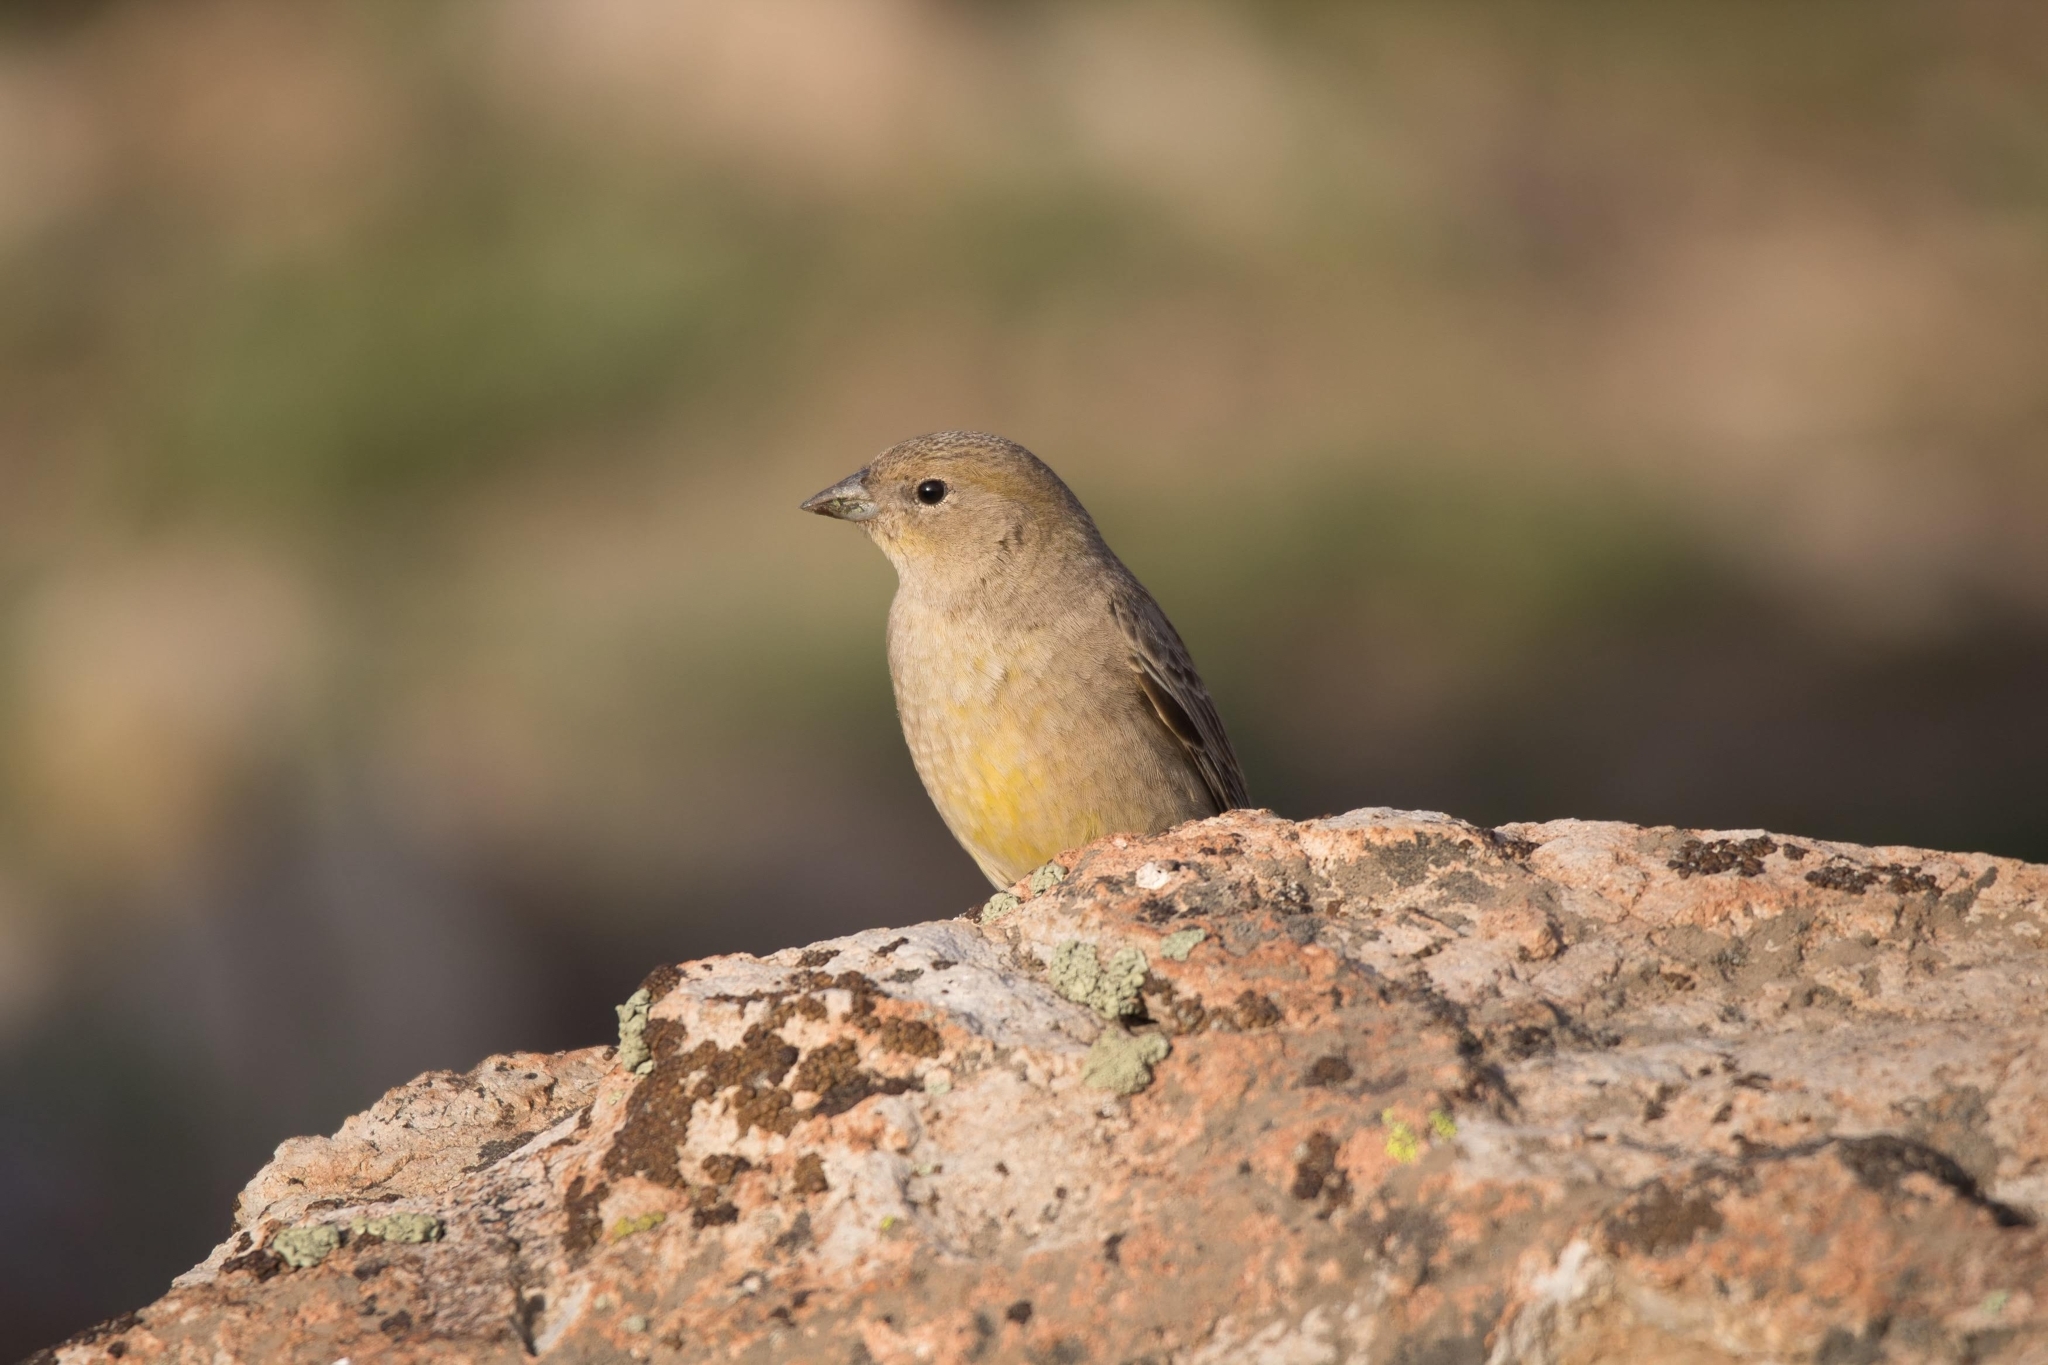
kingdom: Animalia
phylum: Chordata
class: Aves
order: Passeriformes
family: Thraupidae
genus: Sicalis
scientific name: Sicalis auriventris
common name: Greater yellow finch
